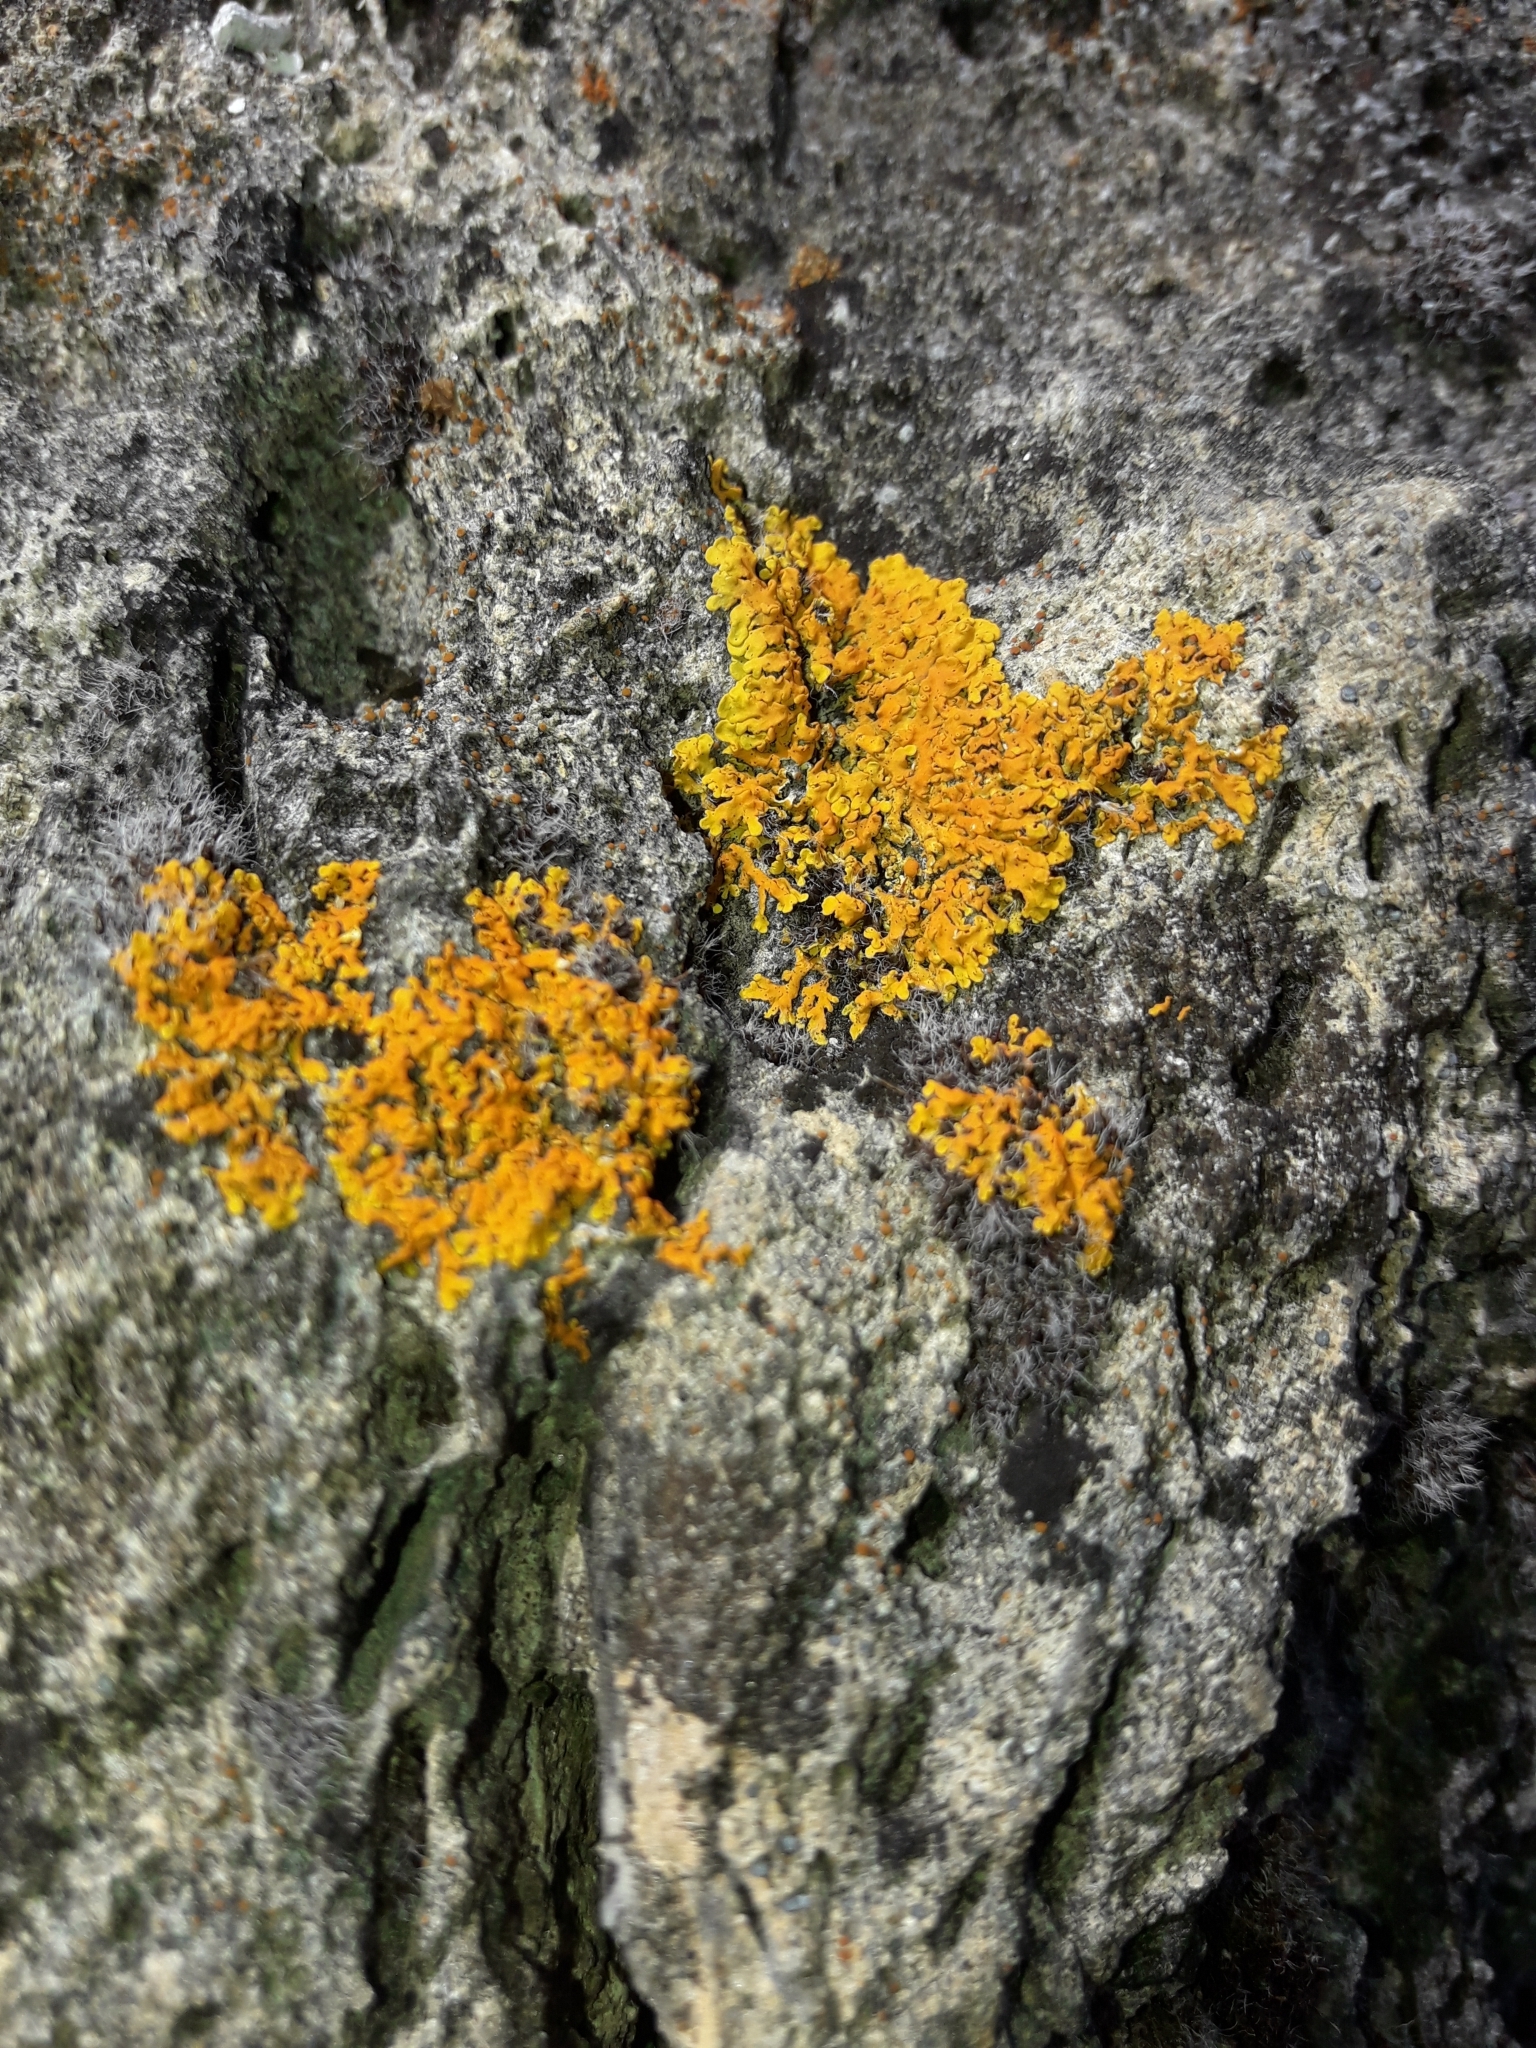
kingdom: Fungi
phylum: Ascomycota
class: Lecanoromycetes
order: Teloschistales
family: Teloschistaceae
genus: Xanthoria
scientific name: Xanthoria parietina
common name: Common orange lichen
